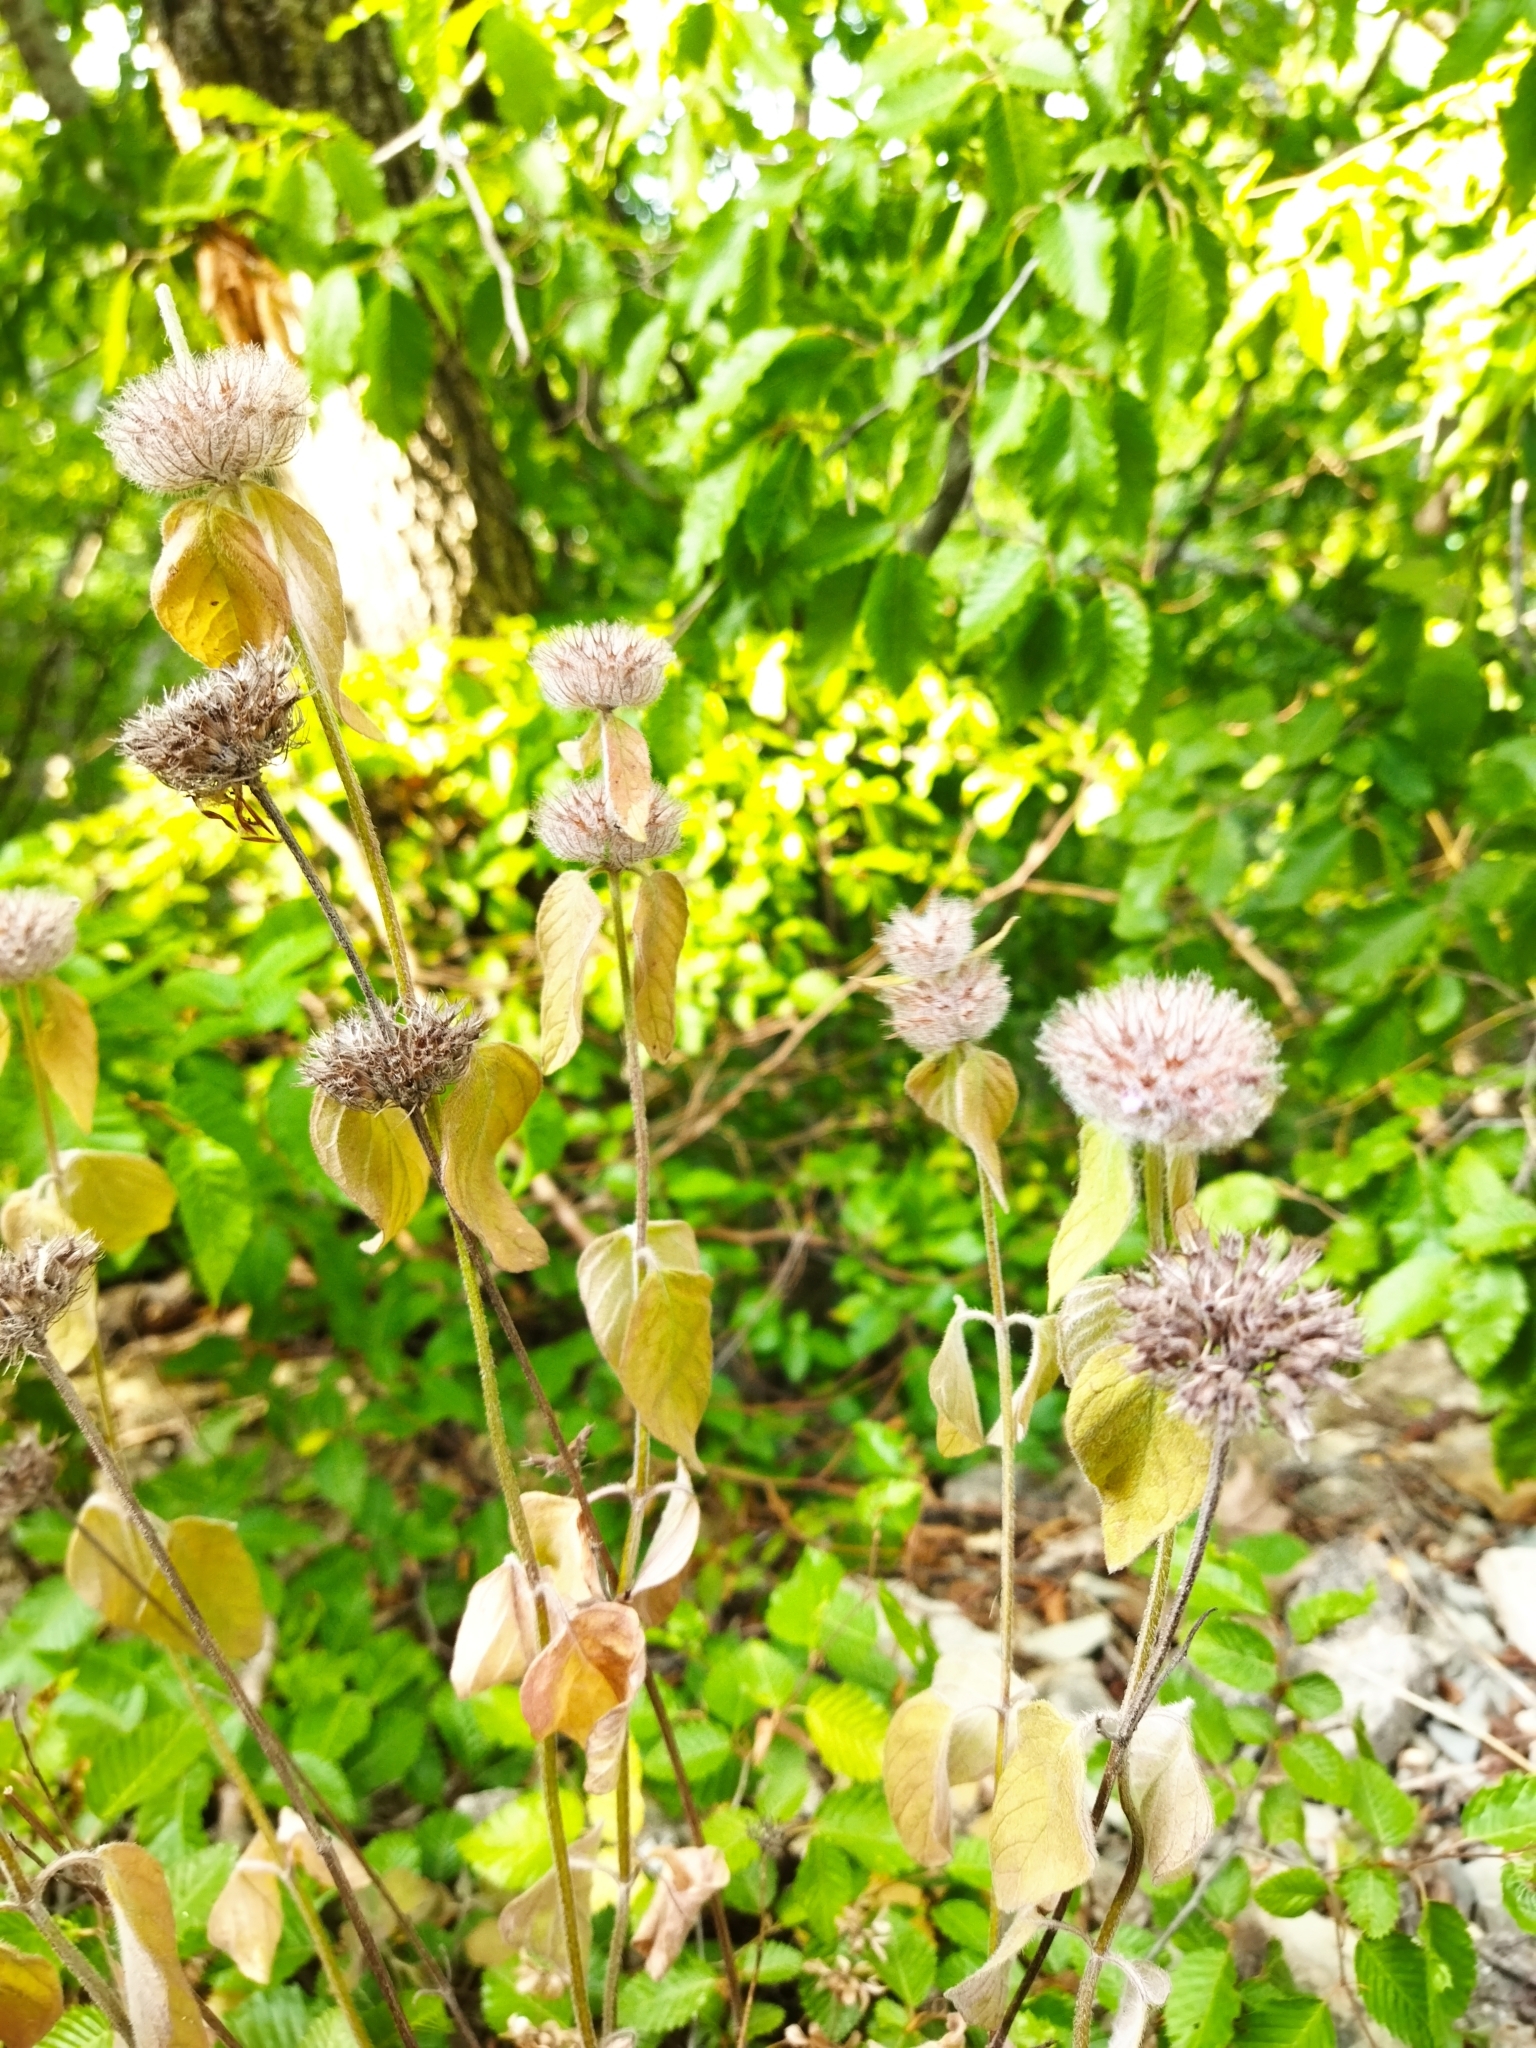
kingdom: Plantae
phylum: Tracheophyta
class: Magnoliopsida
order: Lamiales
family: Lamiaceae
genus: Clinopodium
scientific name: Clinopodium vulgare
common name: Wild basil
